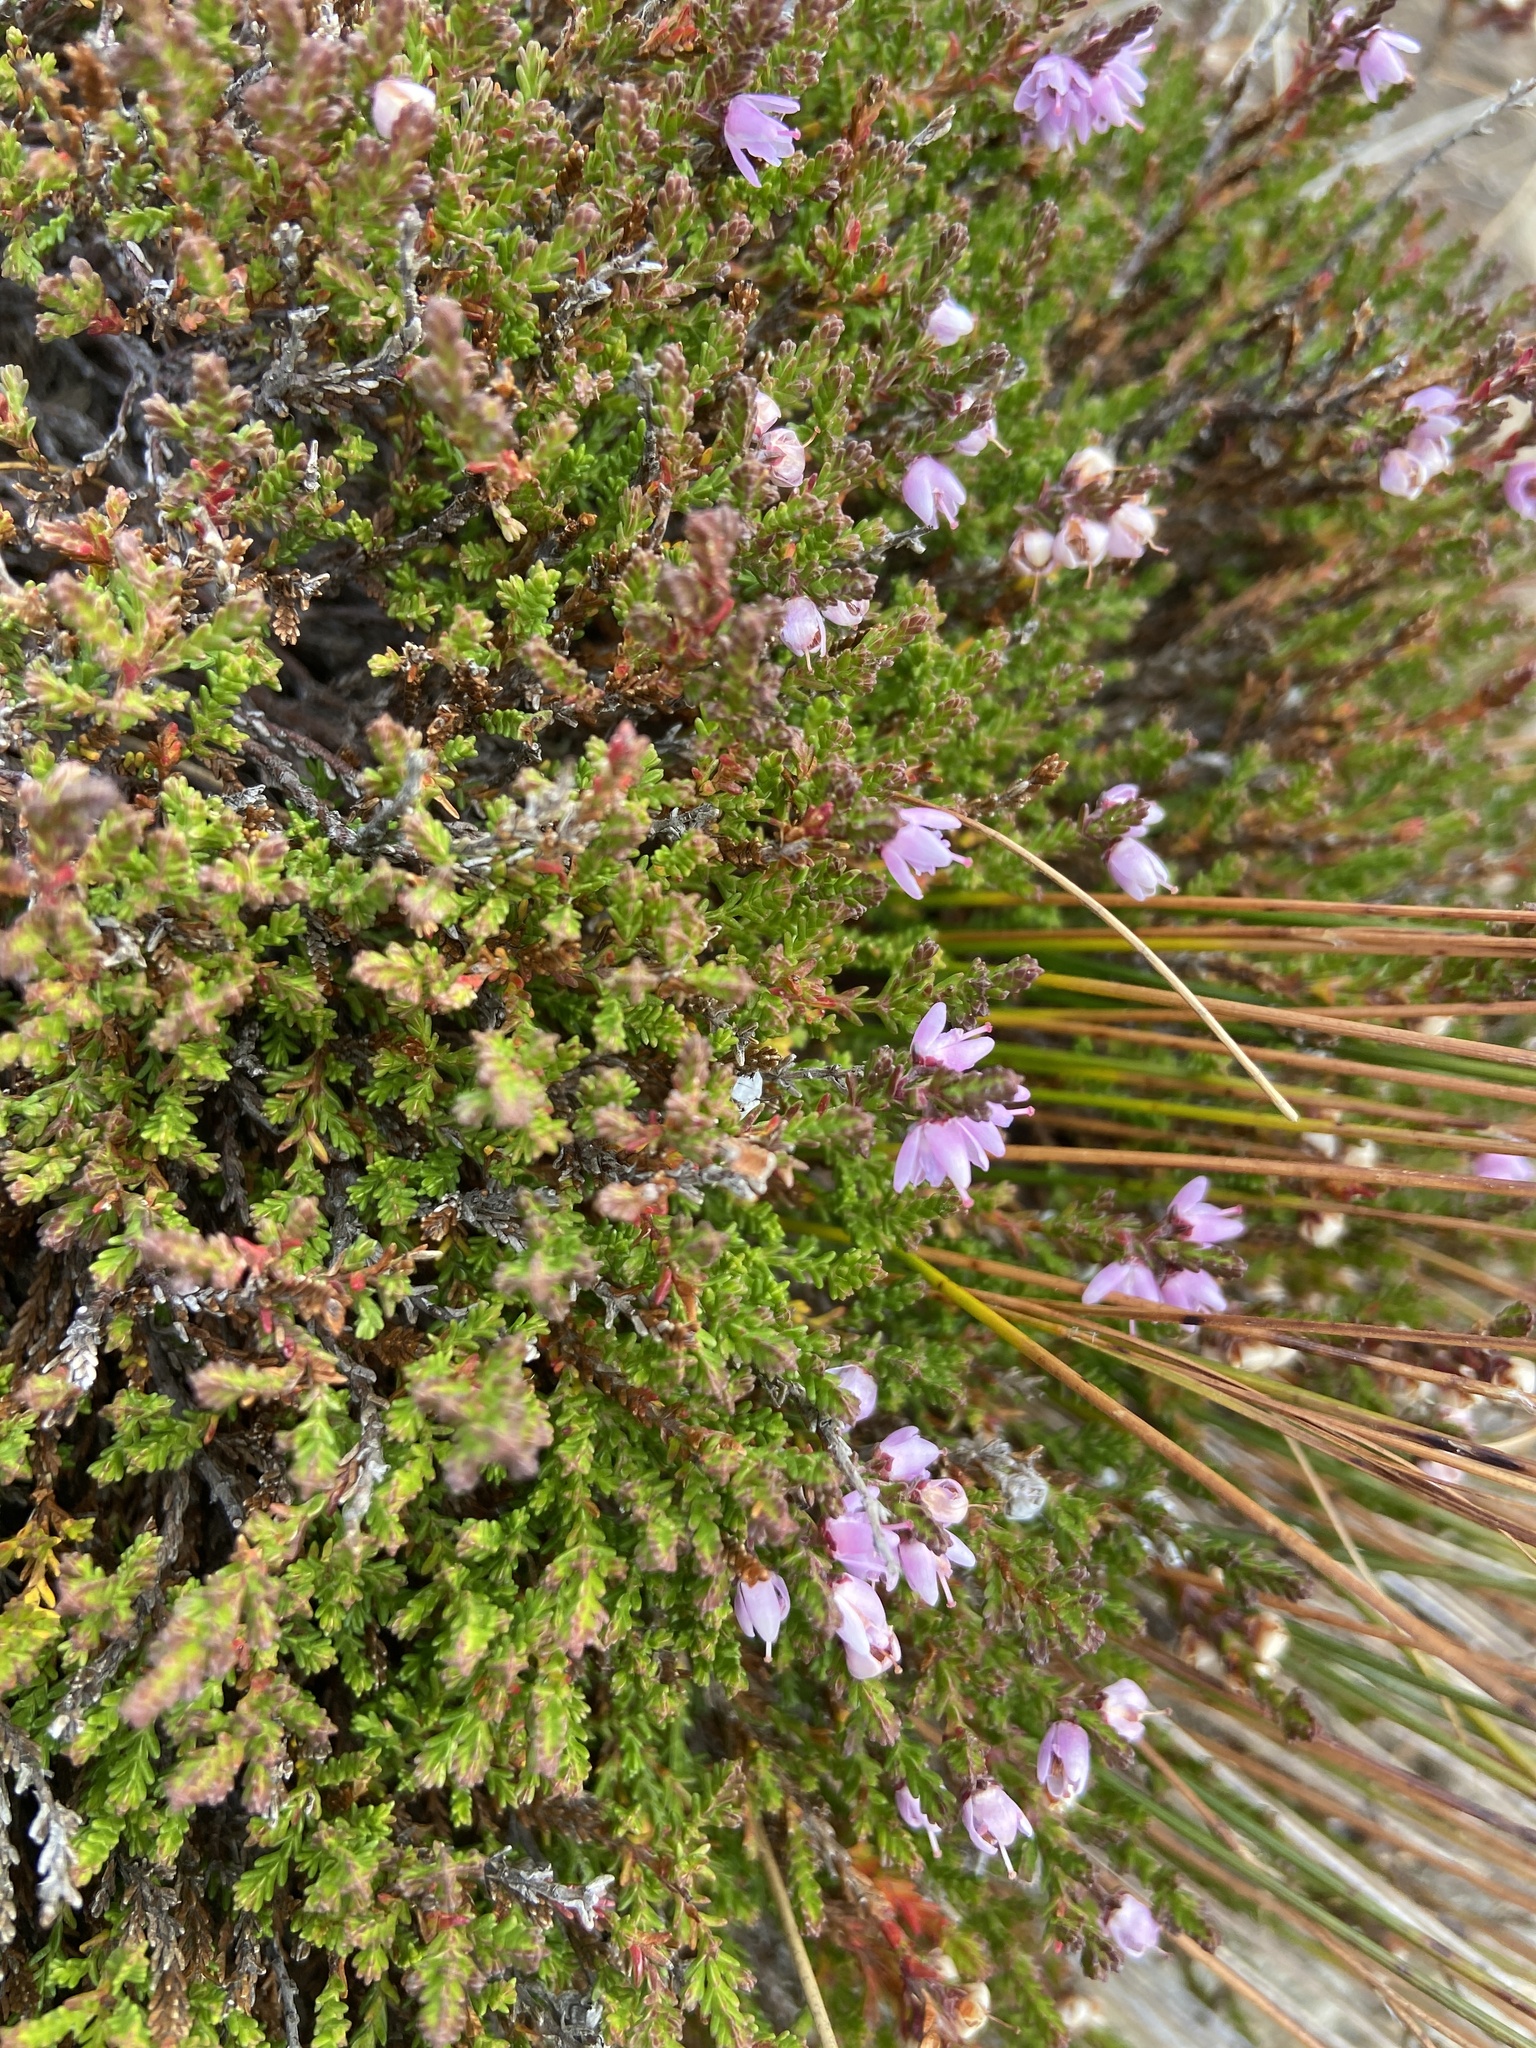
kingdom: Plantae
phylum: Tracheophyta
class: Magnoliopsida
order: Ericales
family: Ericaceae
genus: Calluna
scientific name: Calluna vulgaris
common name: Heather
